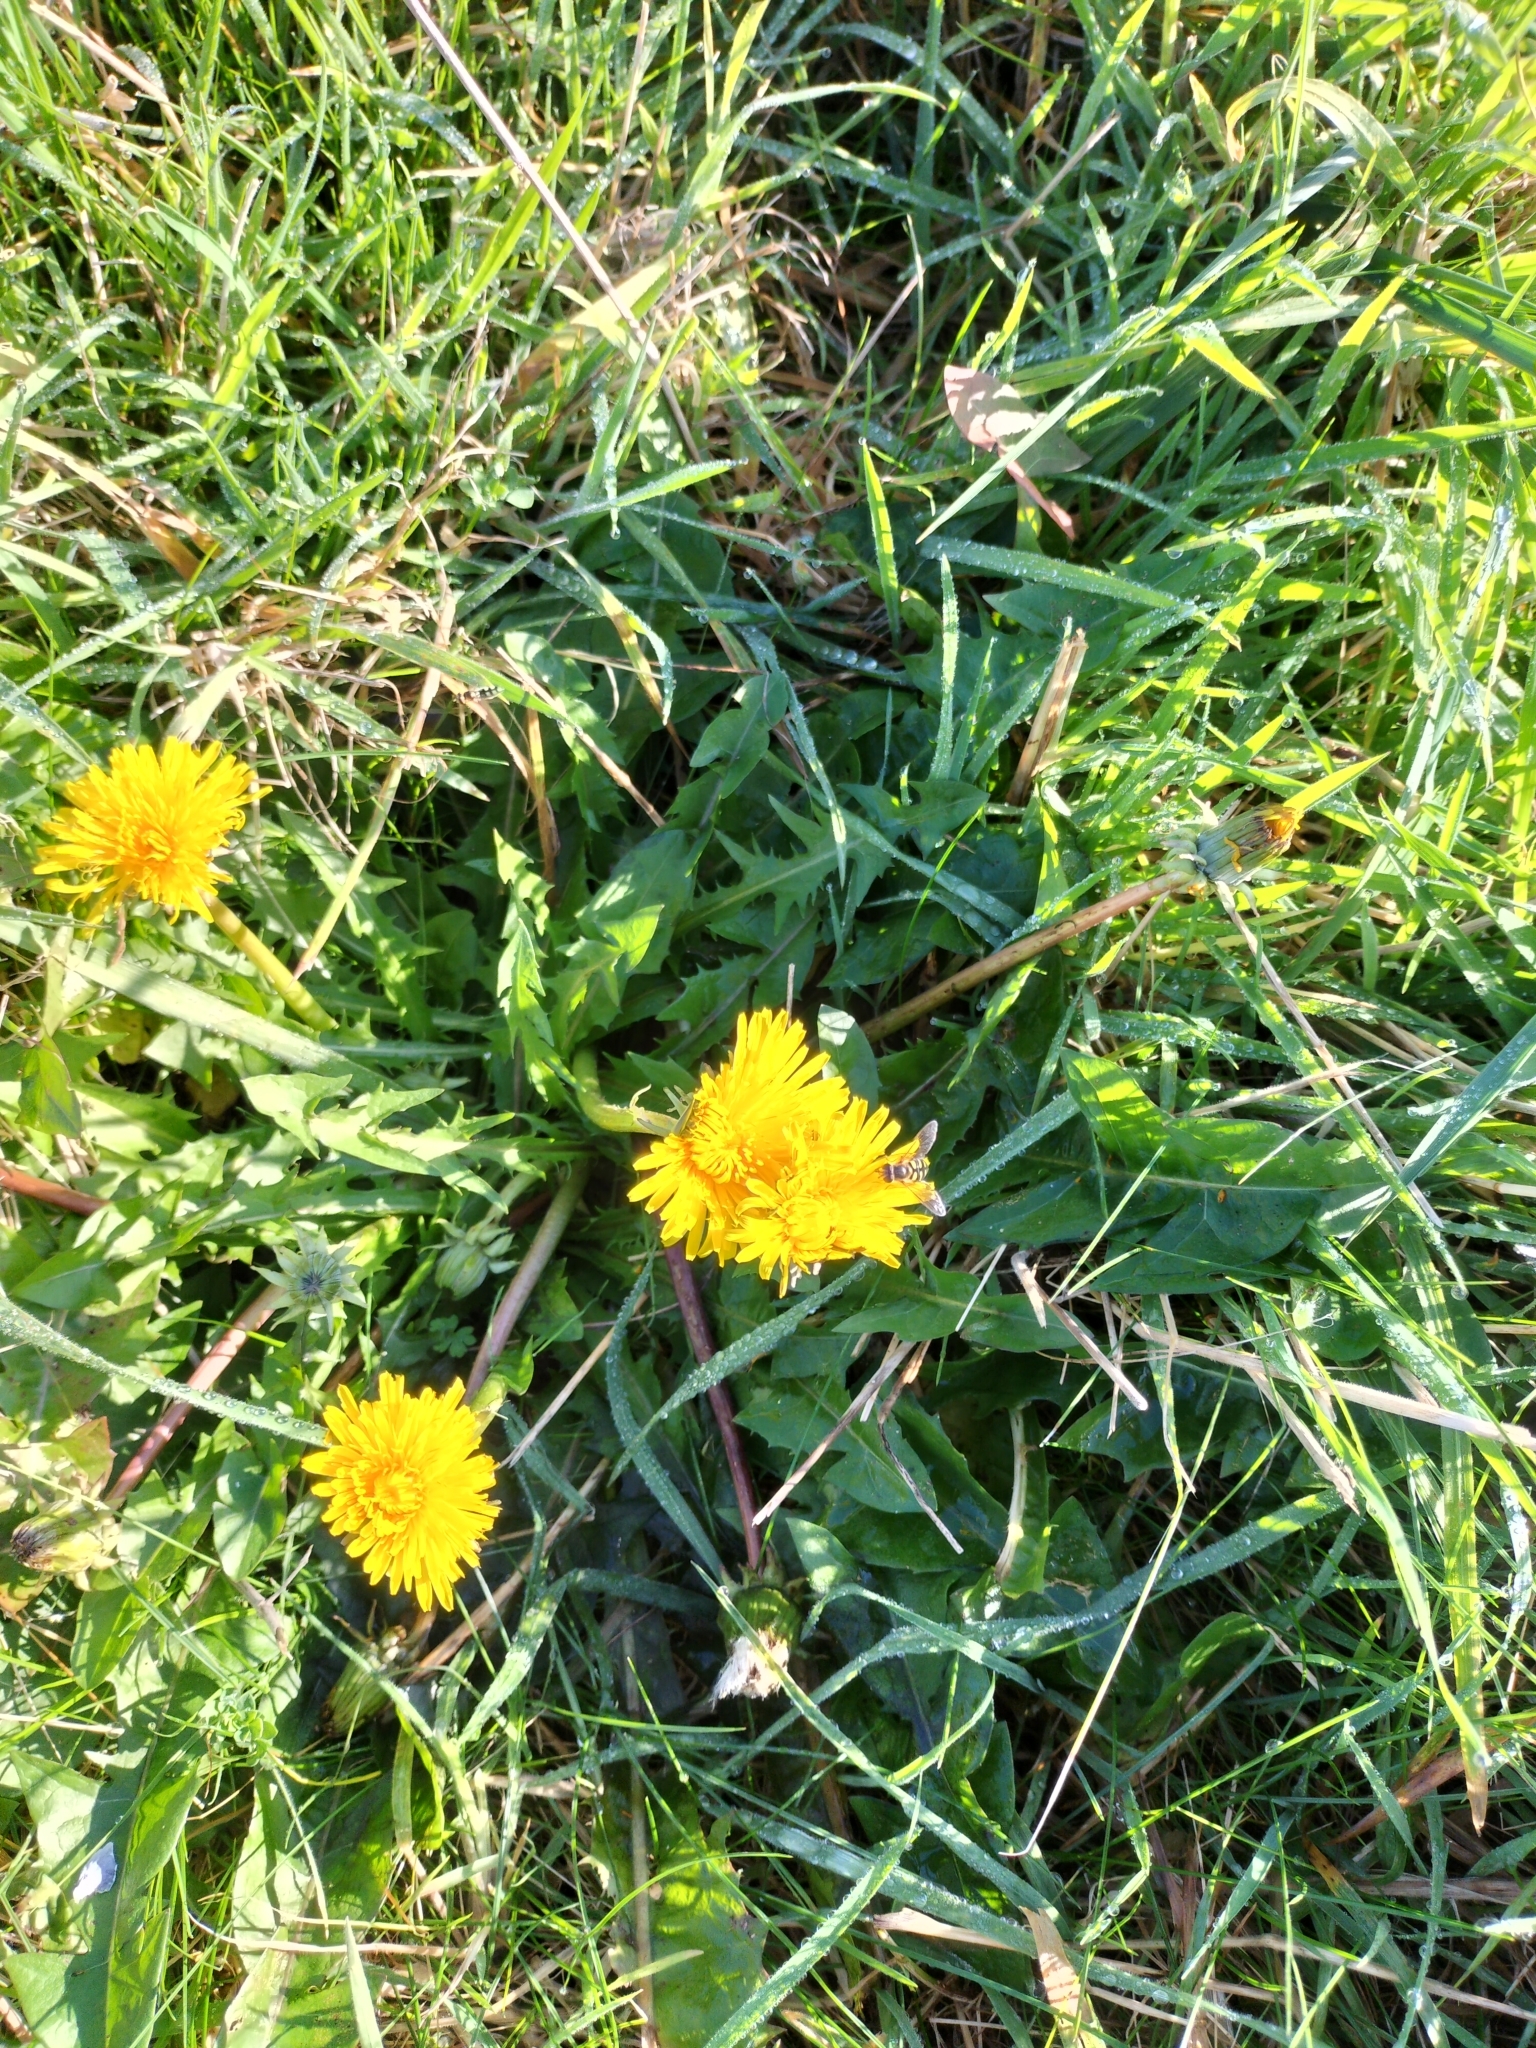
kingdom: Plantae
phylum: Tracheophyta
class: Magnoliopsida
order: Asterales
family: Asteraceae
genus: Taraxacum
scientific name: Taraxacum officinale
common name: Common dandelion
